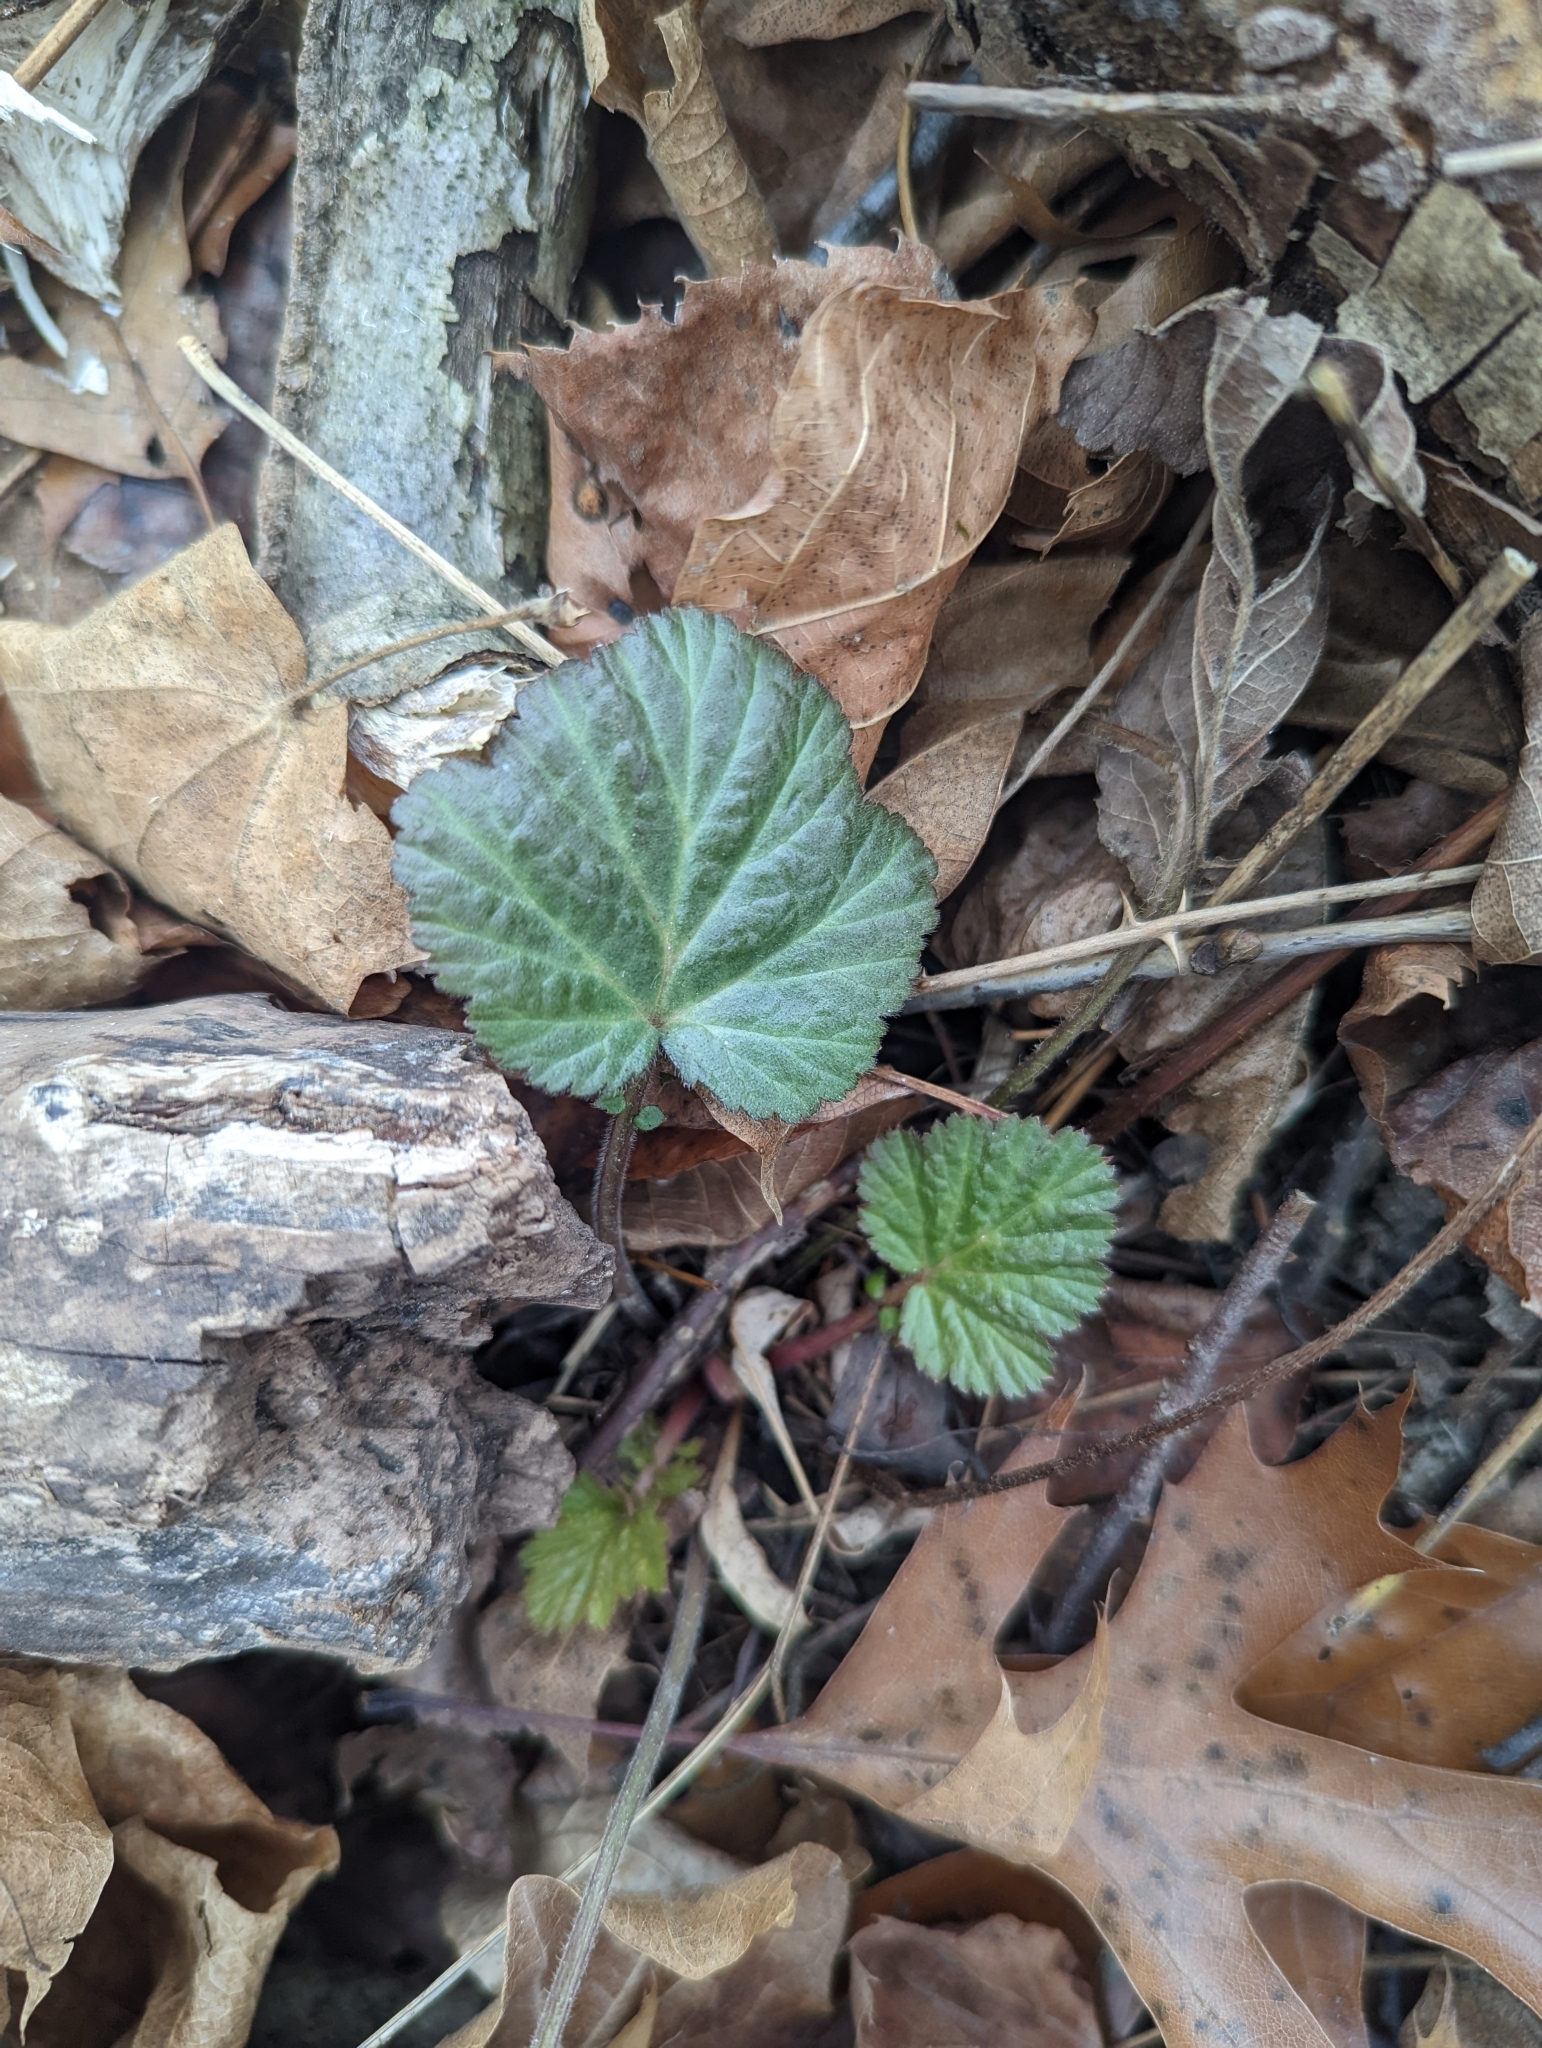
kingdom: Plantae
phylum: Tracheophyta
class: Magnoliopsida
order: Rosales
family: Rosaceae
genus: Geum
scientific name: Geum canadense
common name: White avens
